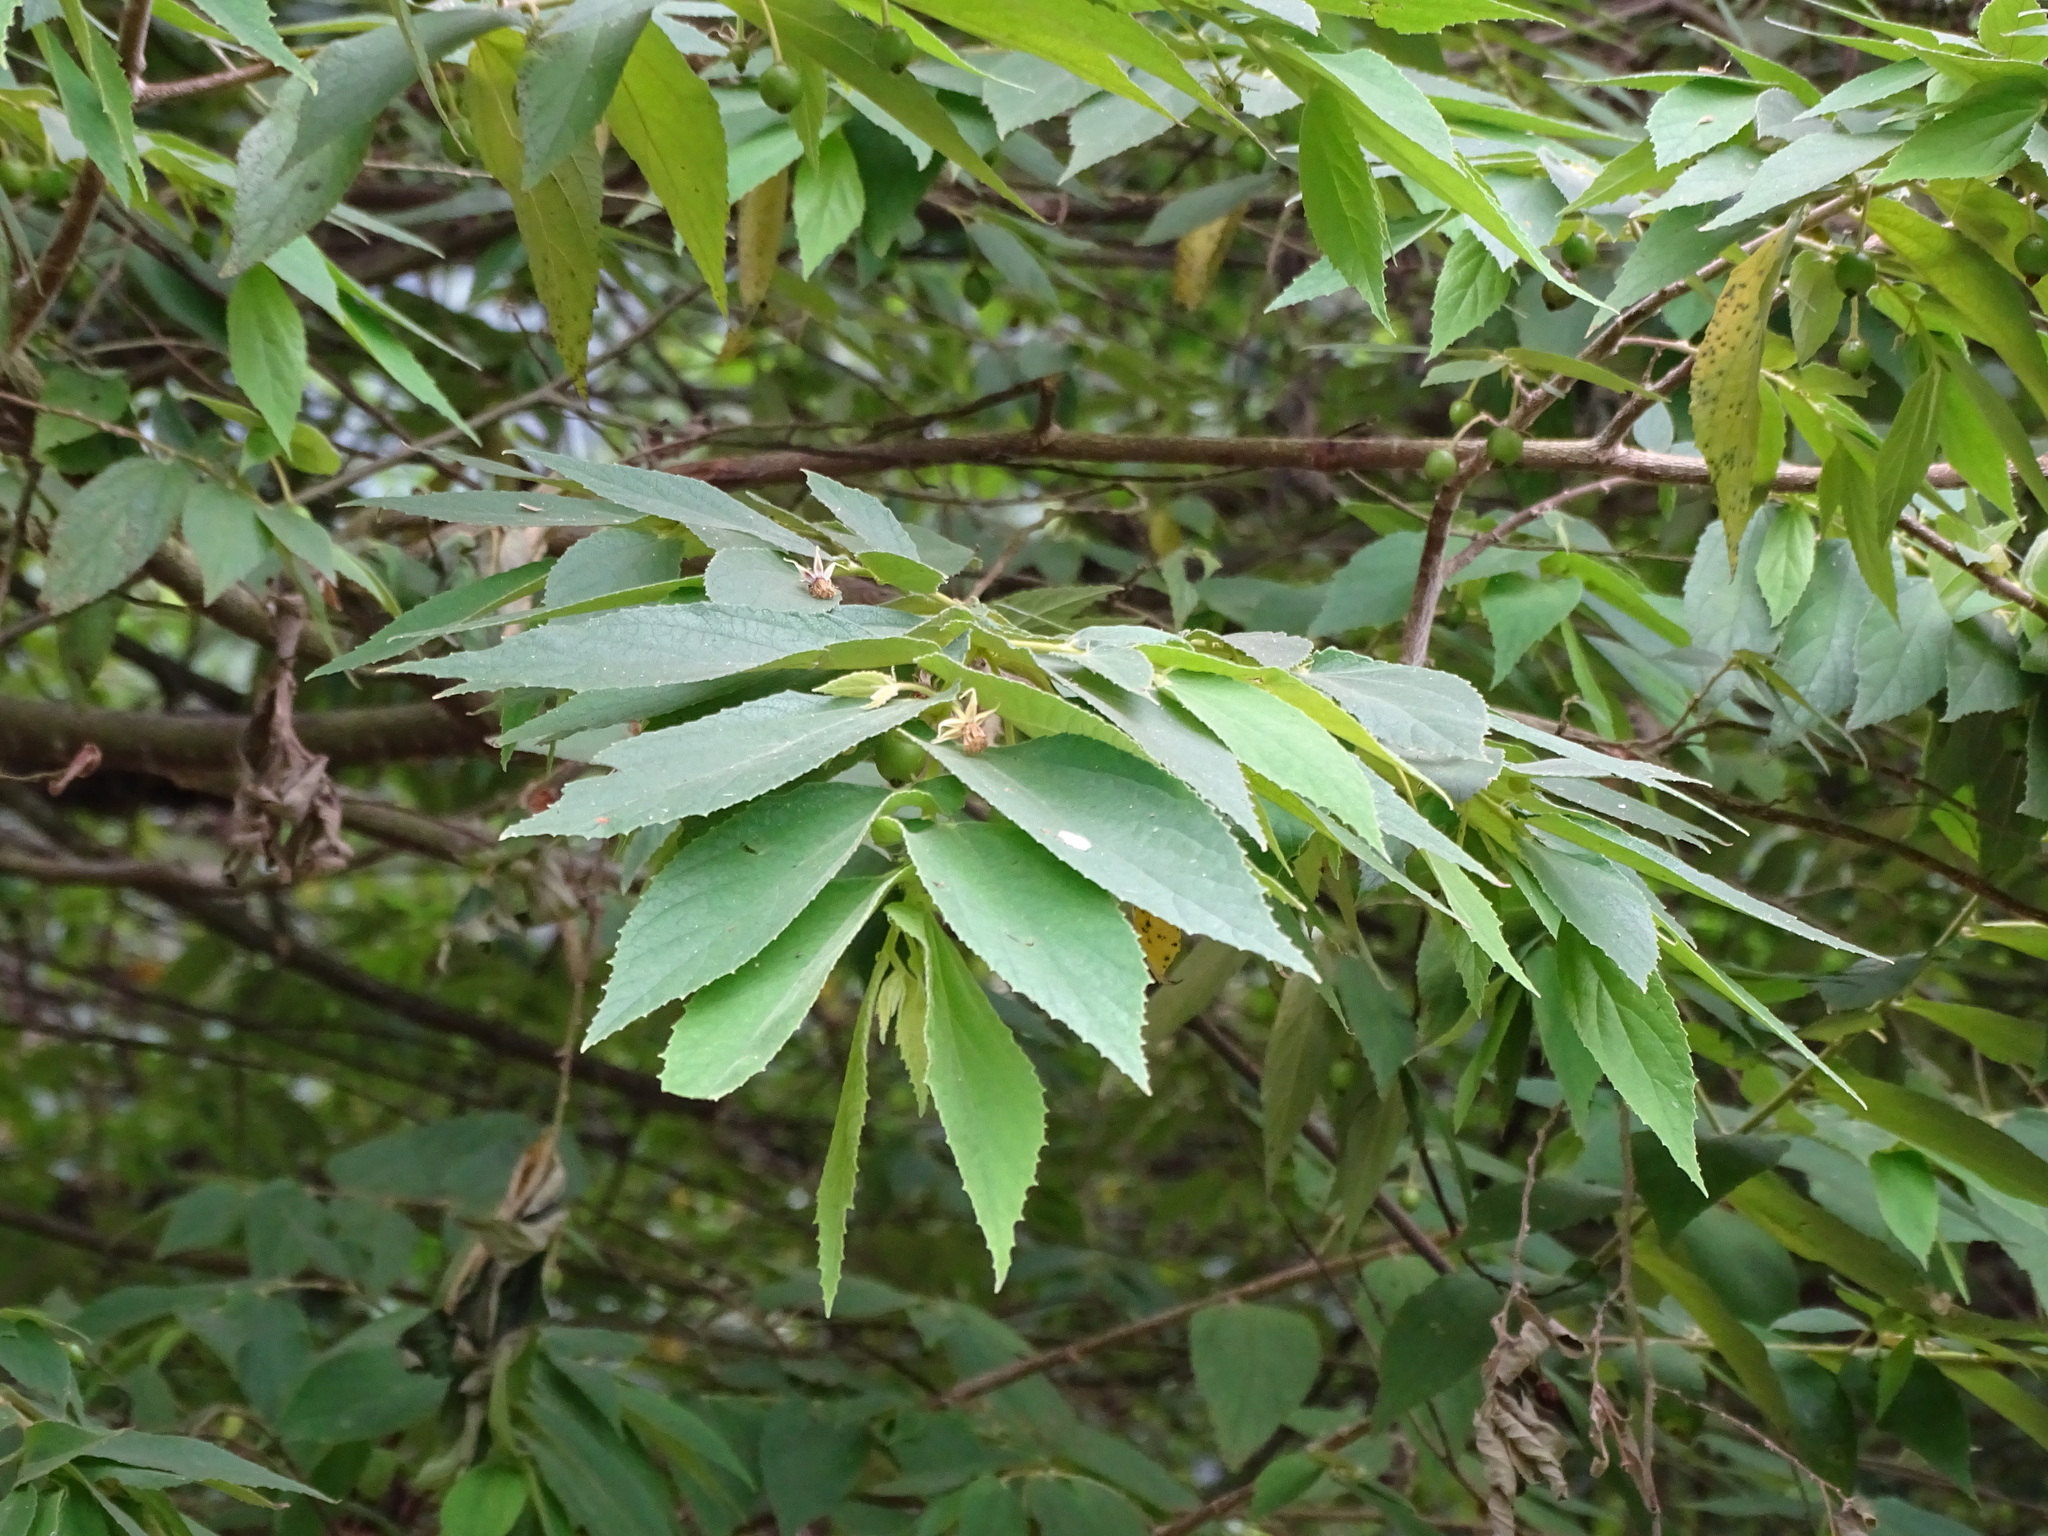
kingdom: Plantae
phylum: Tracheophyta
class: Magnoliopsida
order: Malvales
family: Muntingiaceae
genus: Muntingia
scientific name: Muntingia calabura
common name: Strawberrytree
